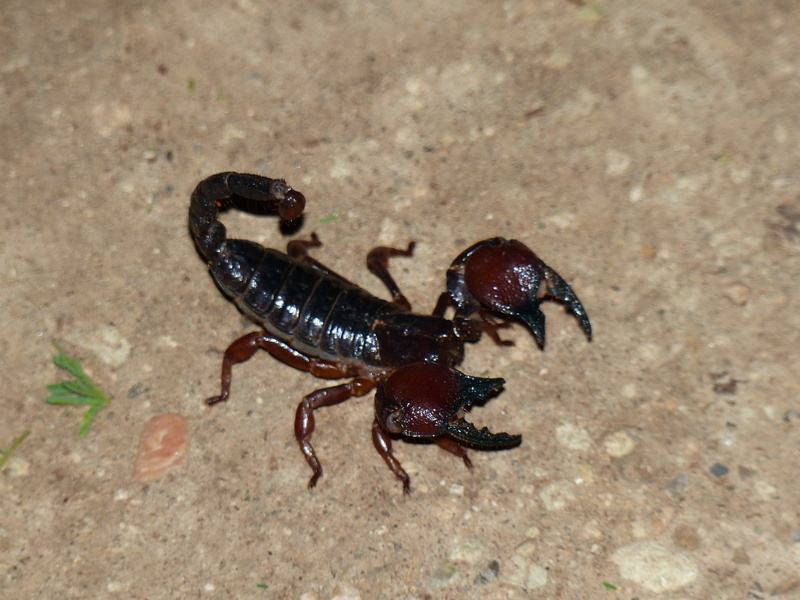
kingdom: Animalia
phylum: Arthropoda
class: Arachnida
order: Scorpiones
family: Scorpionidae
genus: Pandinoides
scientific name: Pandinoides duffmackayi
